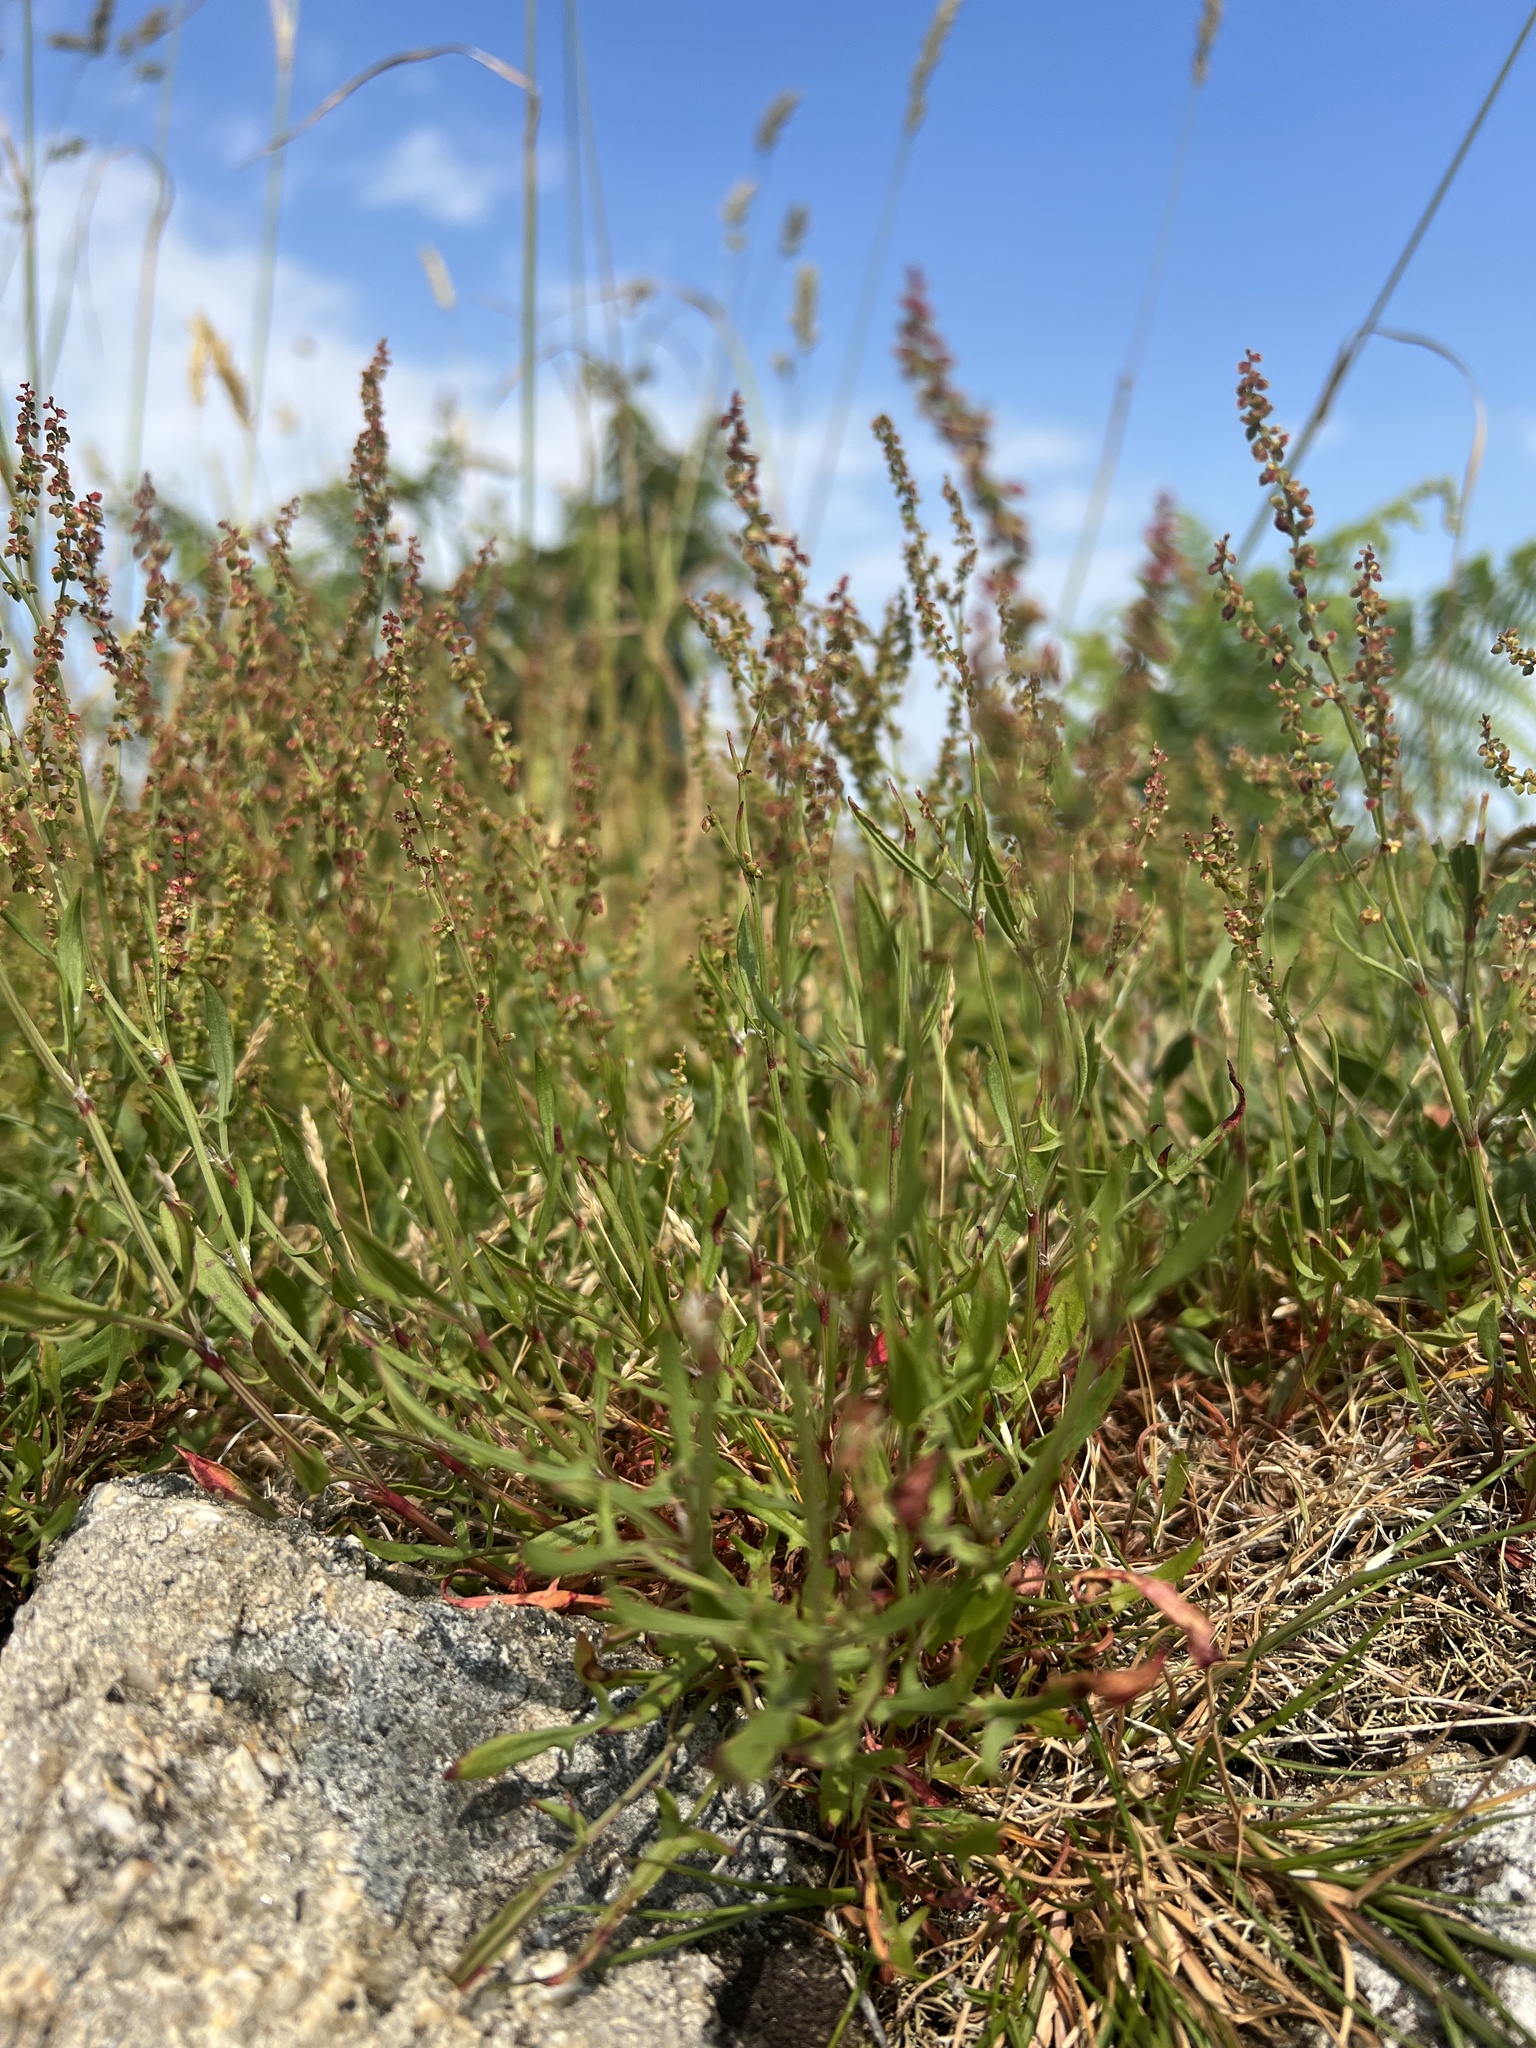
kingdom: Plantae
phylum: Tracheophyta
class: Magnoliopsida
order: Caryophyllales
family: Polygonaceae
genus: Rumex
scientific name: Rumex acetosella
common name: Common sheep sorrel
